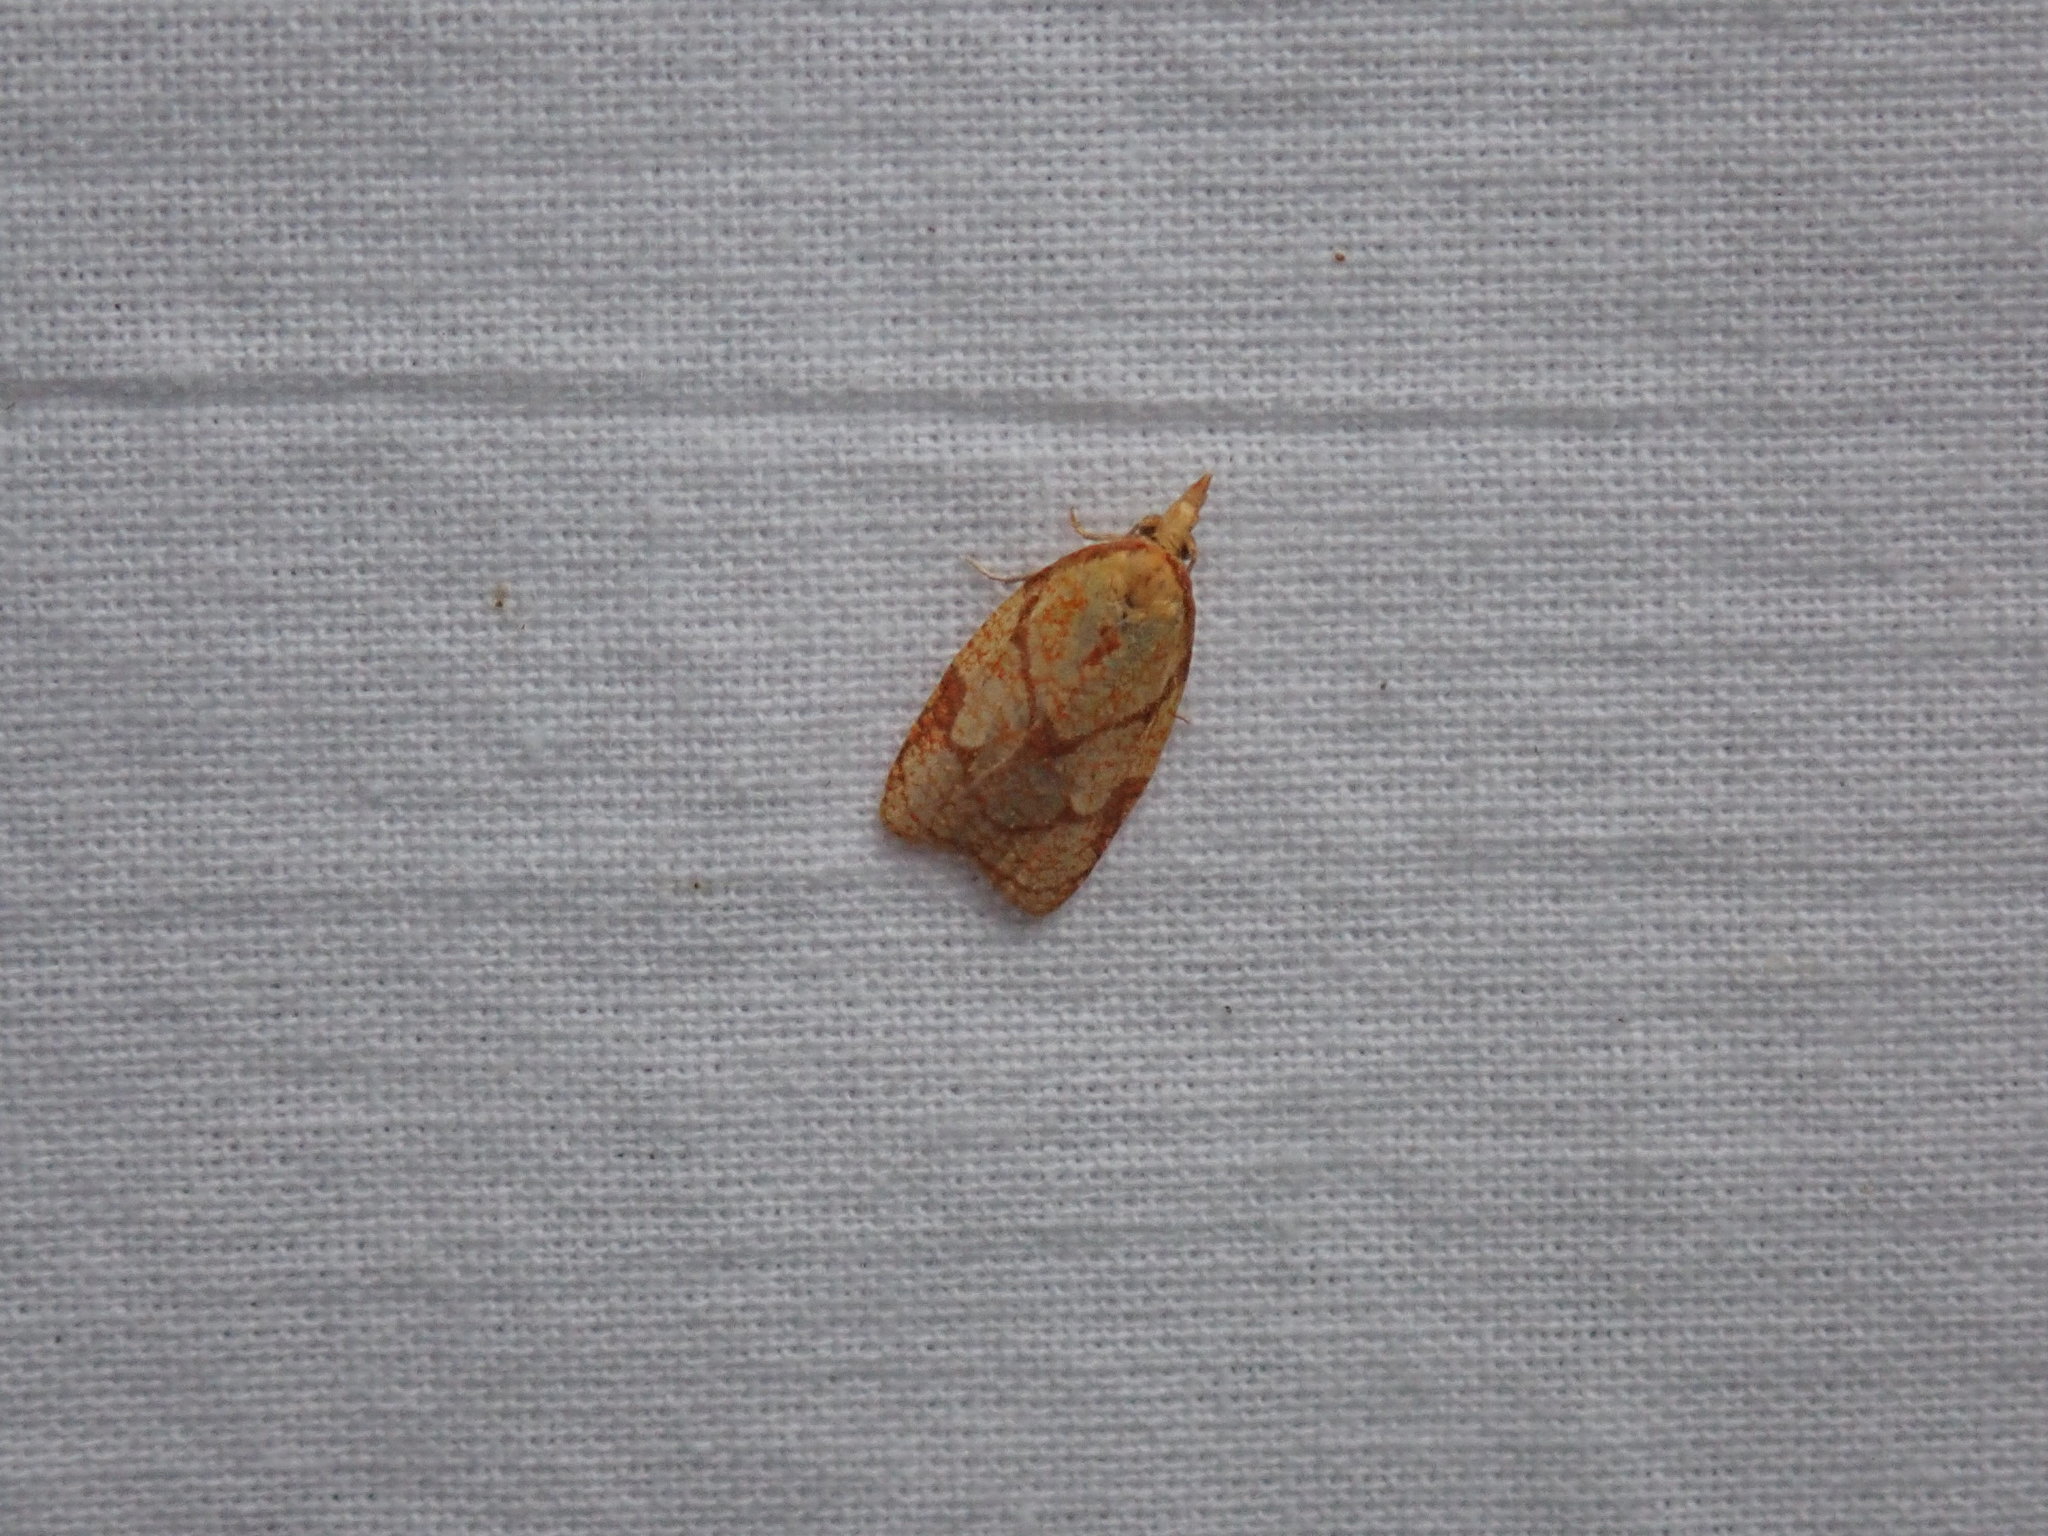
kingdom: Animalia
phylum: Arthropoda
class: Insecta
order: Lepidoptera
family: Tortricidae
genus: Cenopis
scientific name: Cenopis reticulatana
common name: Reticulated fruitworm moth
